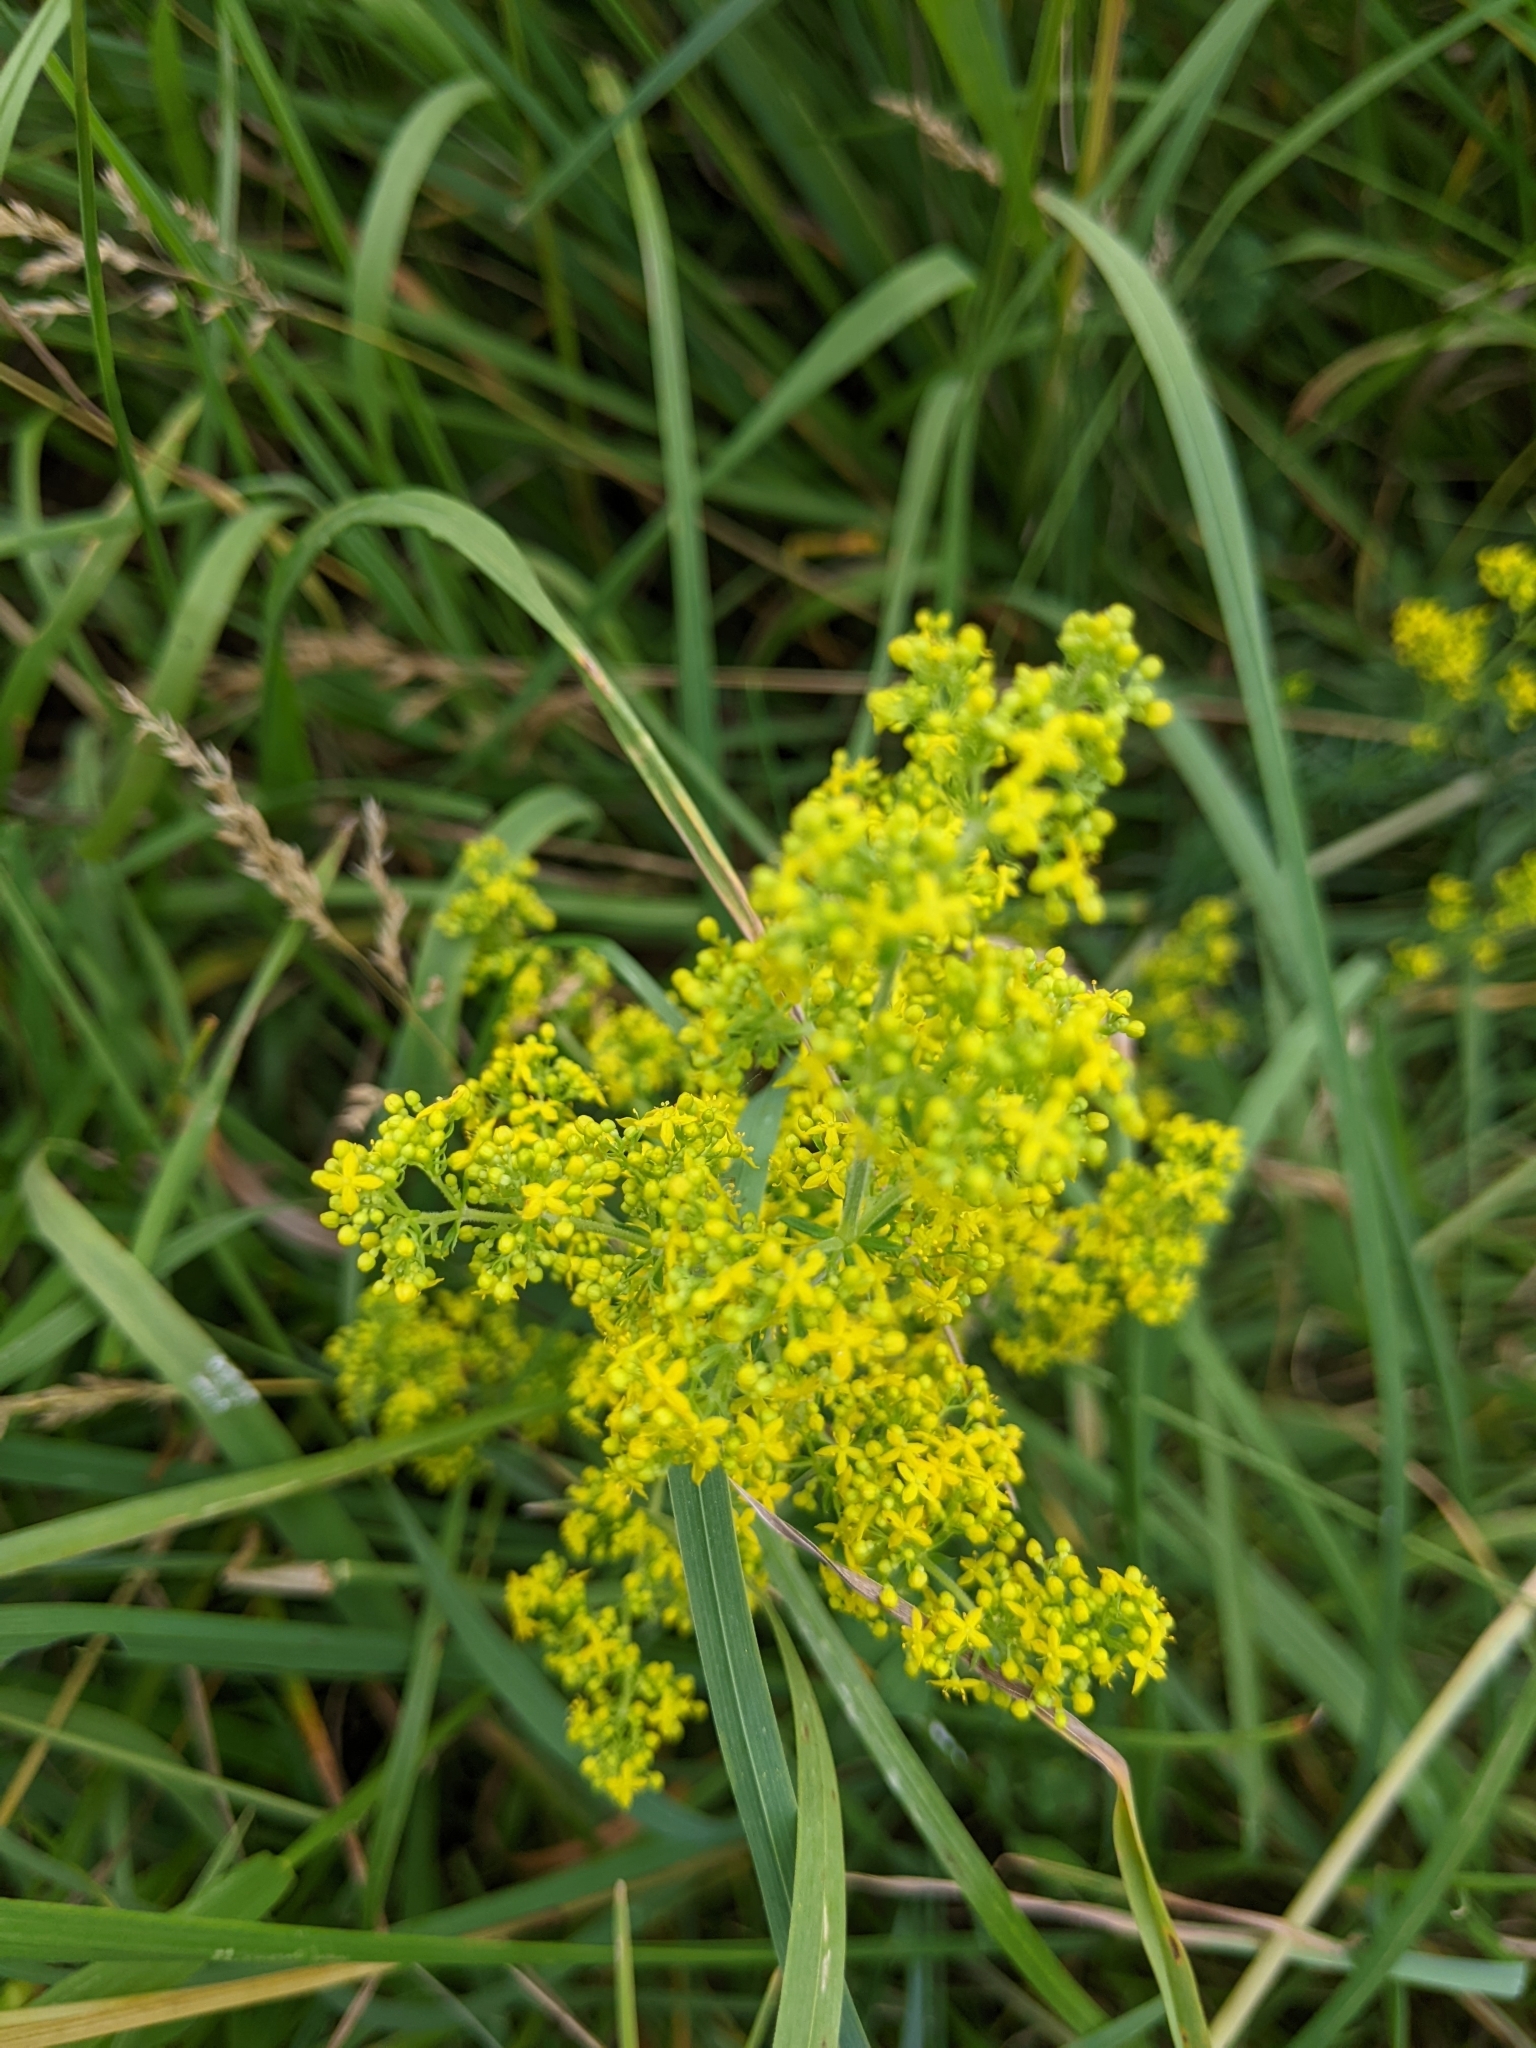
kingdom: Plantae
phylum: Tracheophyta
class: Magnoliopsida
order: Gentianales
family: Rubiaceae
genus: Galium
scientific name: Galium verum
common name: Lady's bedstraw
